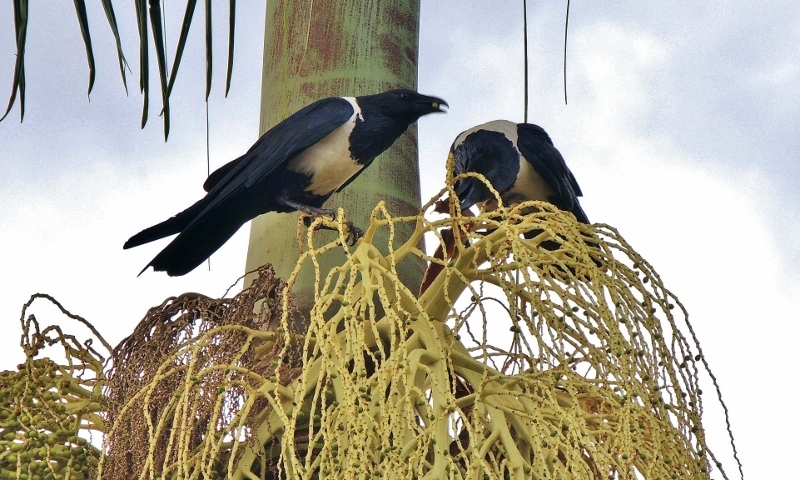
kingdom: Animalia
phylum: Chordata
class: Aves
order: Passeriformes
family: Corvidae
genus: Corvus
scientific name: Corvus albus
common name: Pied crow
